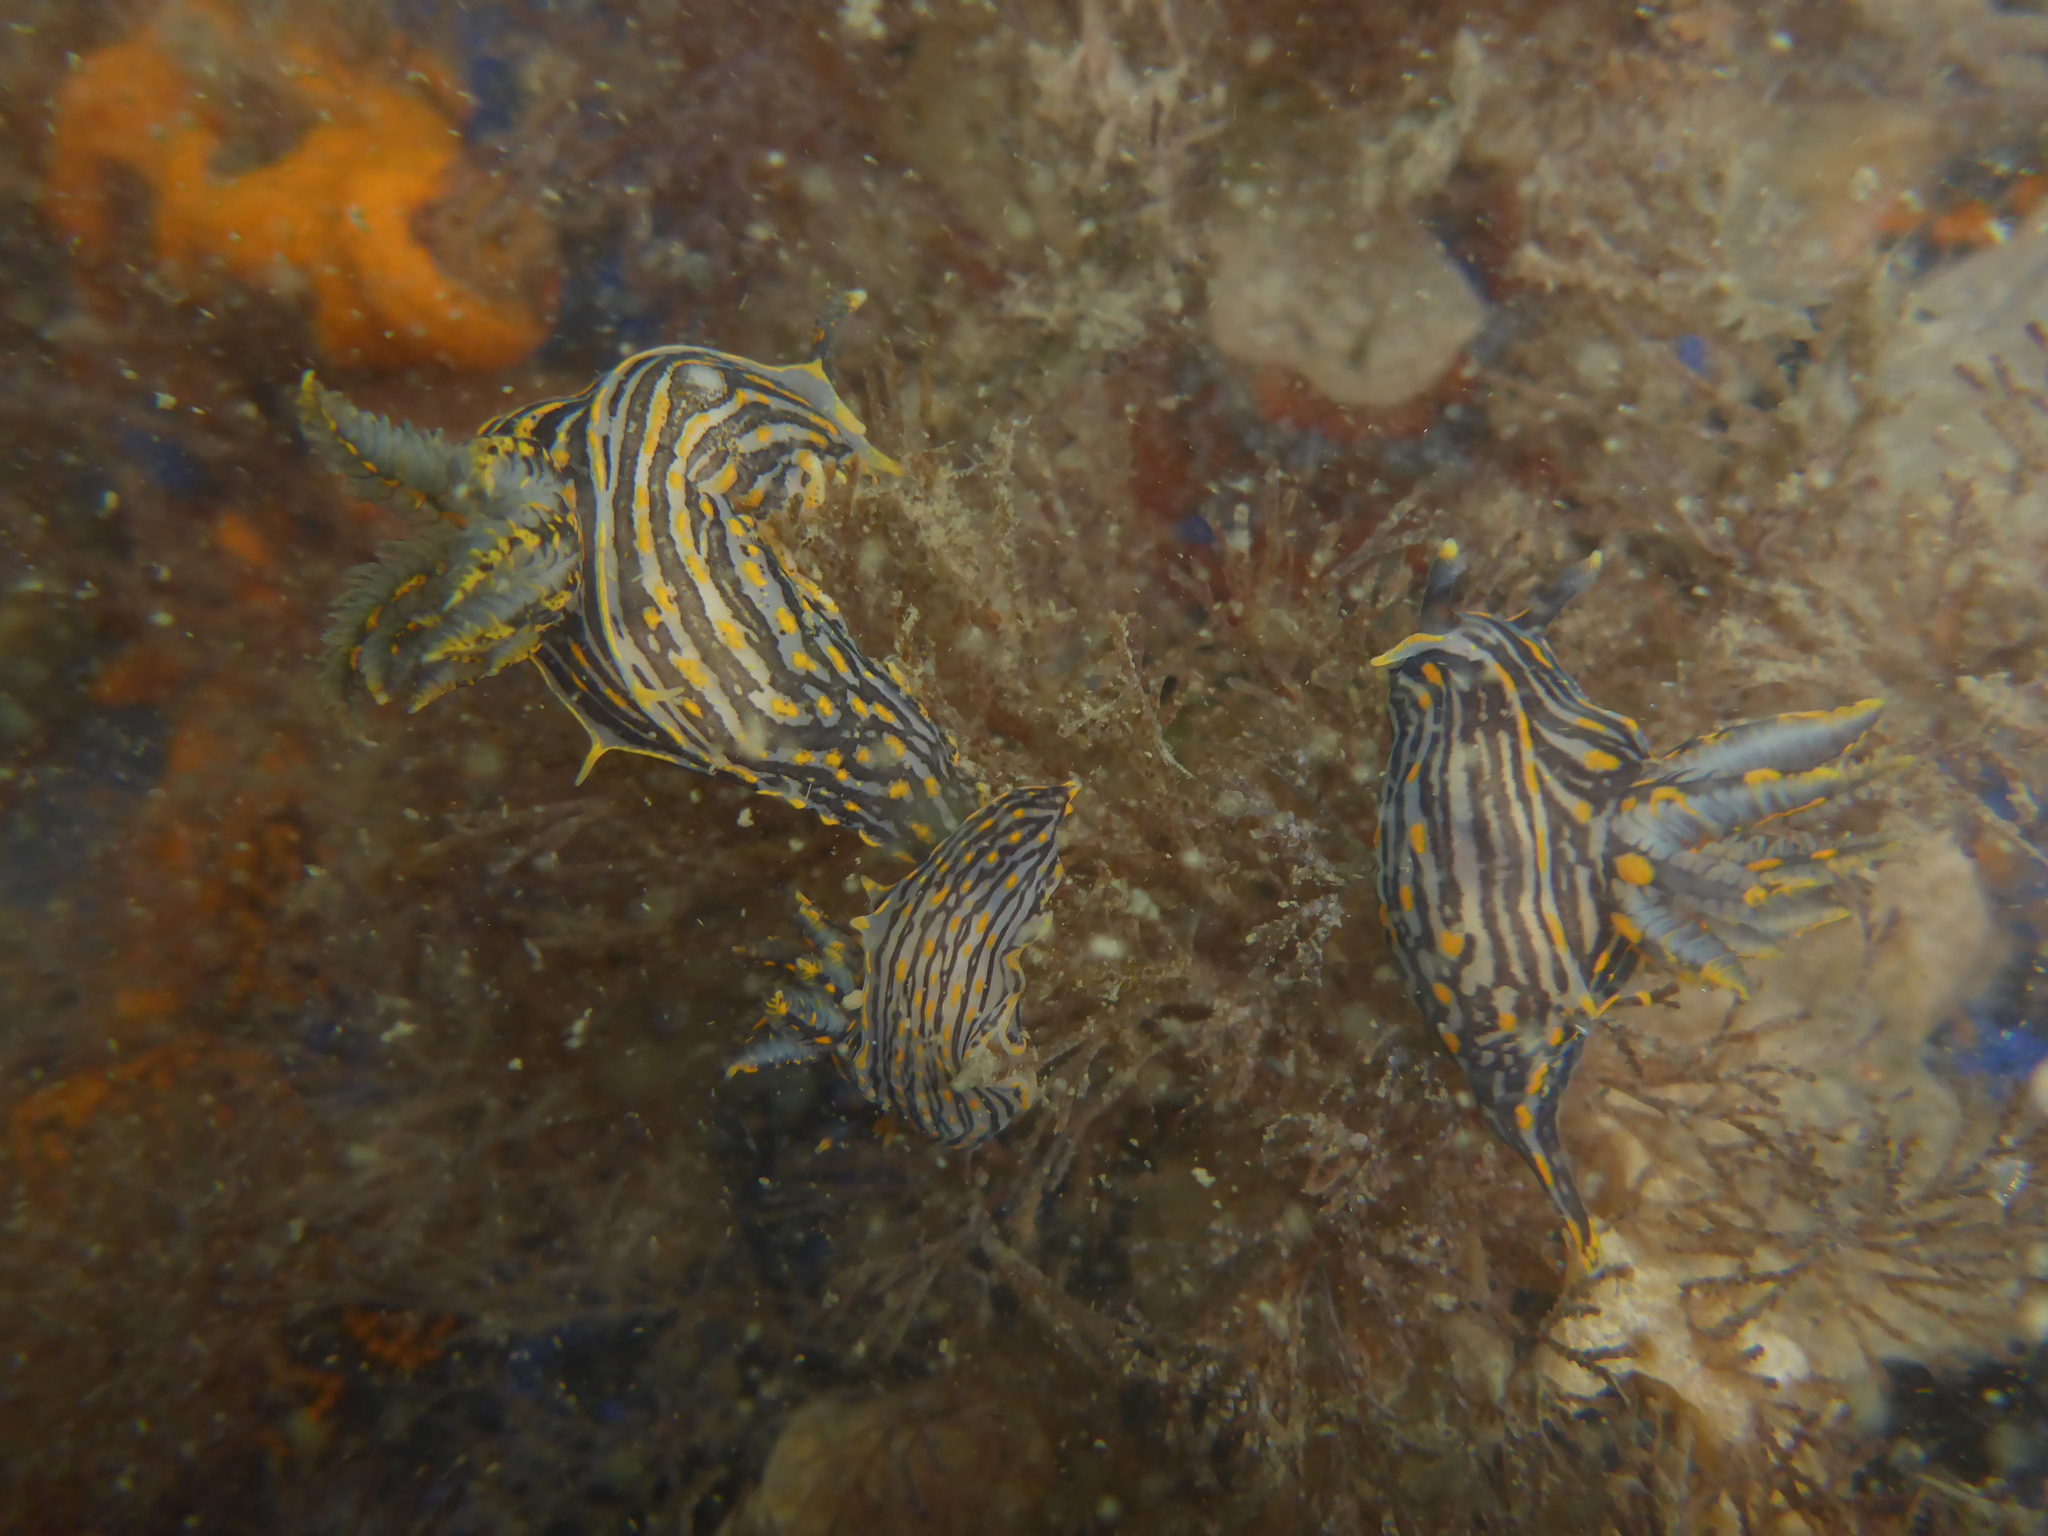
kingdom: Animalia
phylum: Mollusca
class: Gastropoda
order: Nudibranchia
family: Polyceridae
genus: Polycera
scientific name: Polycera atra
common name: Orange-spike polycera
